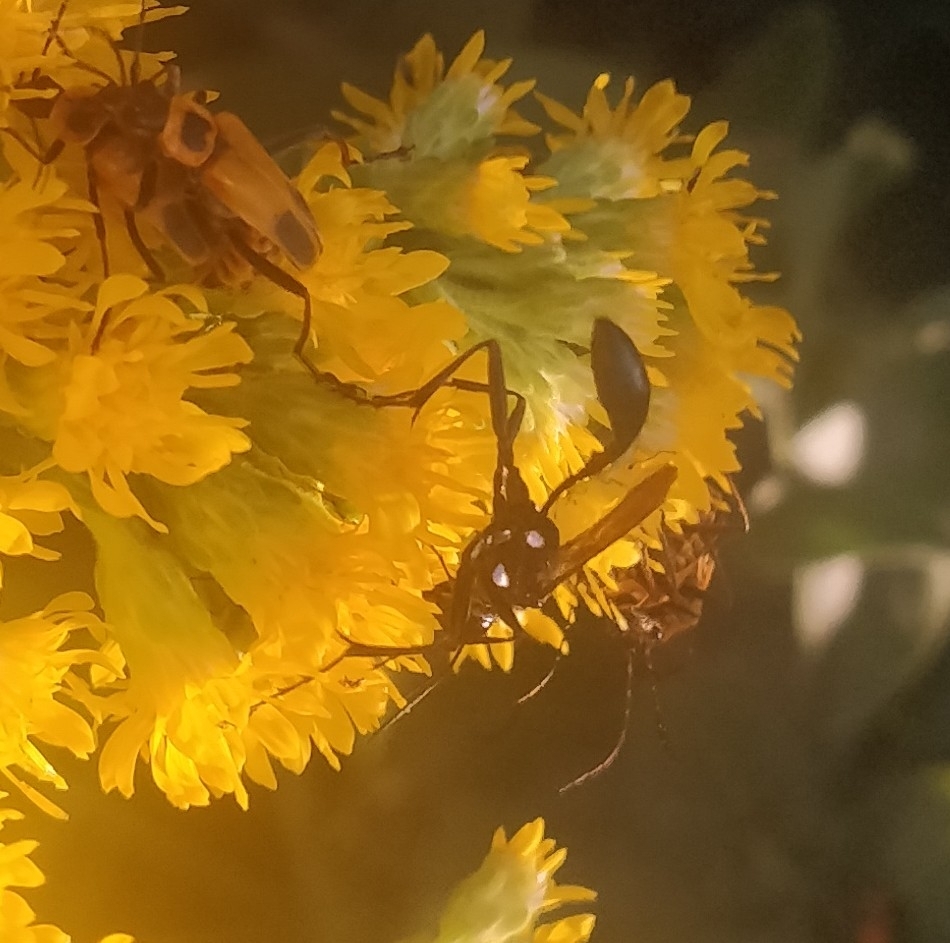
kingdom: Animalia
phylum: Arthropoda
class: Insecta
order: Hymenoptera
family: Sphecidae
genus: Eremnophila
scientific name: Eremnophila aureonotata
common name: Gold-marked thread-waisted wasp
